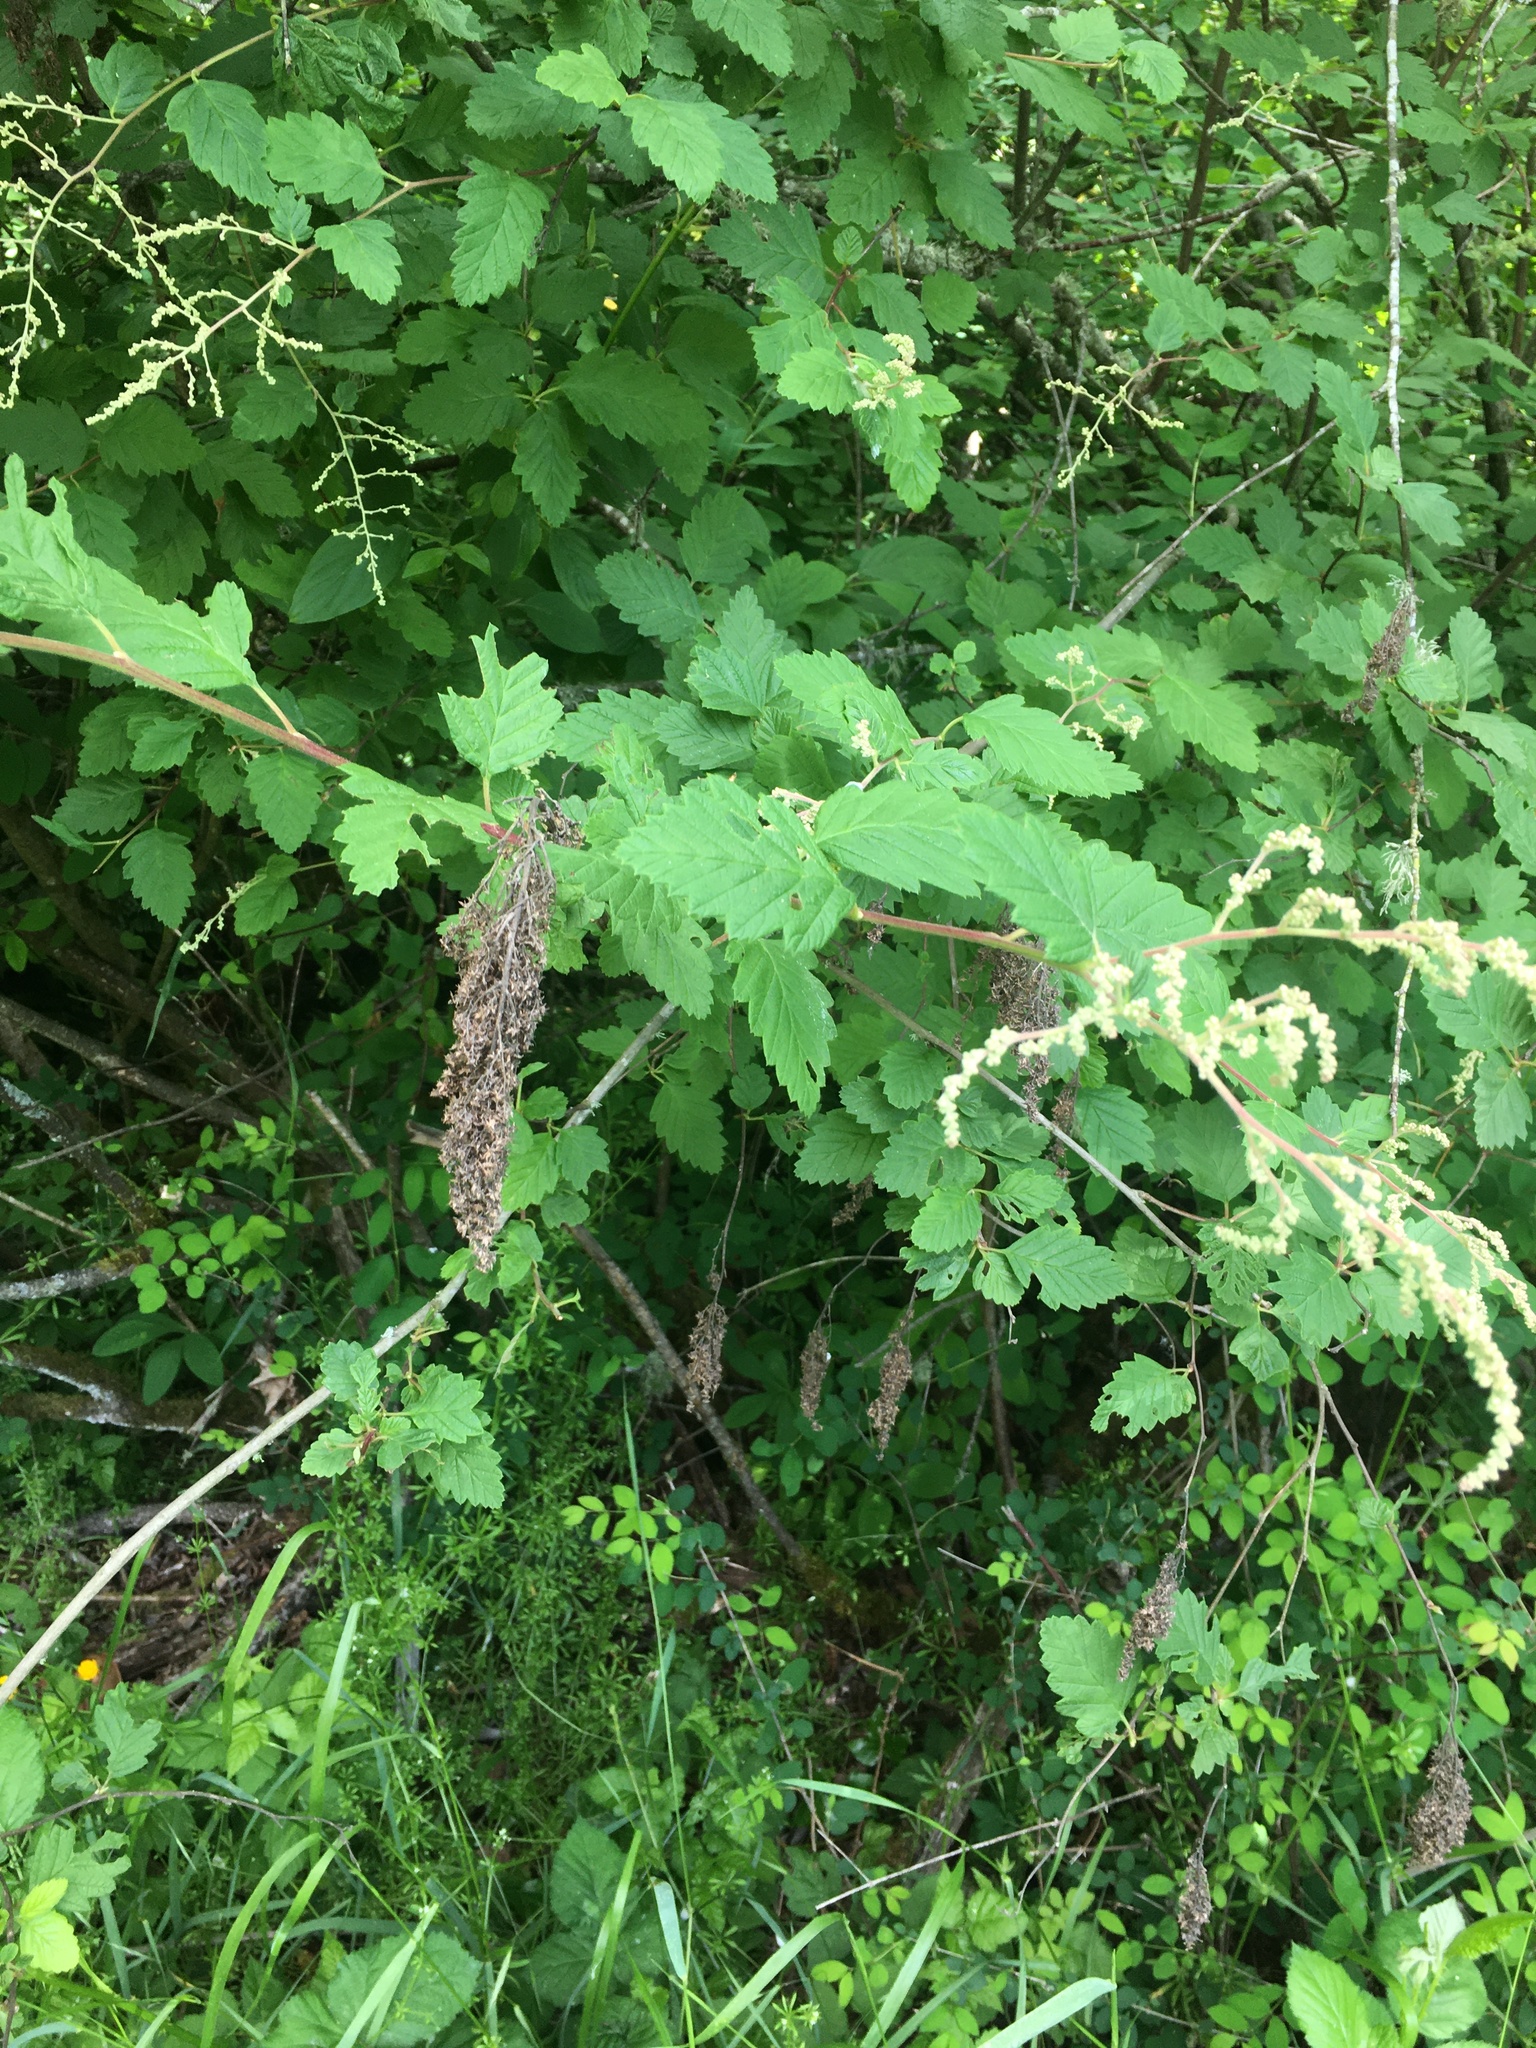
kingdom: Plantae
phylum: Tracheophyta
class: Magnoliopsida
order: Rosales
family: Rosaceae
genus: Holodiscus
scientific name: Holodiscus discolor
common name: Oceanspray
